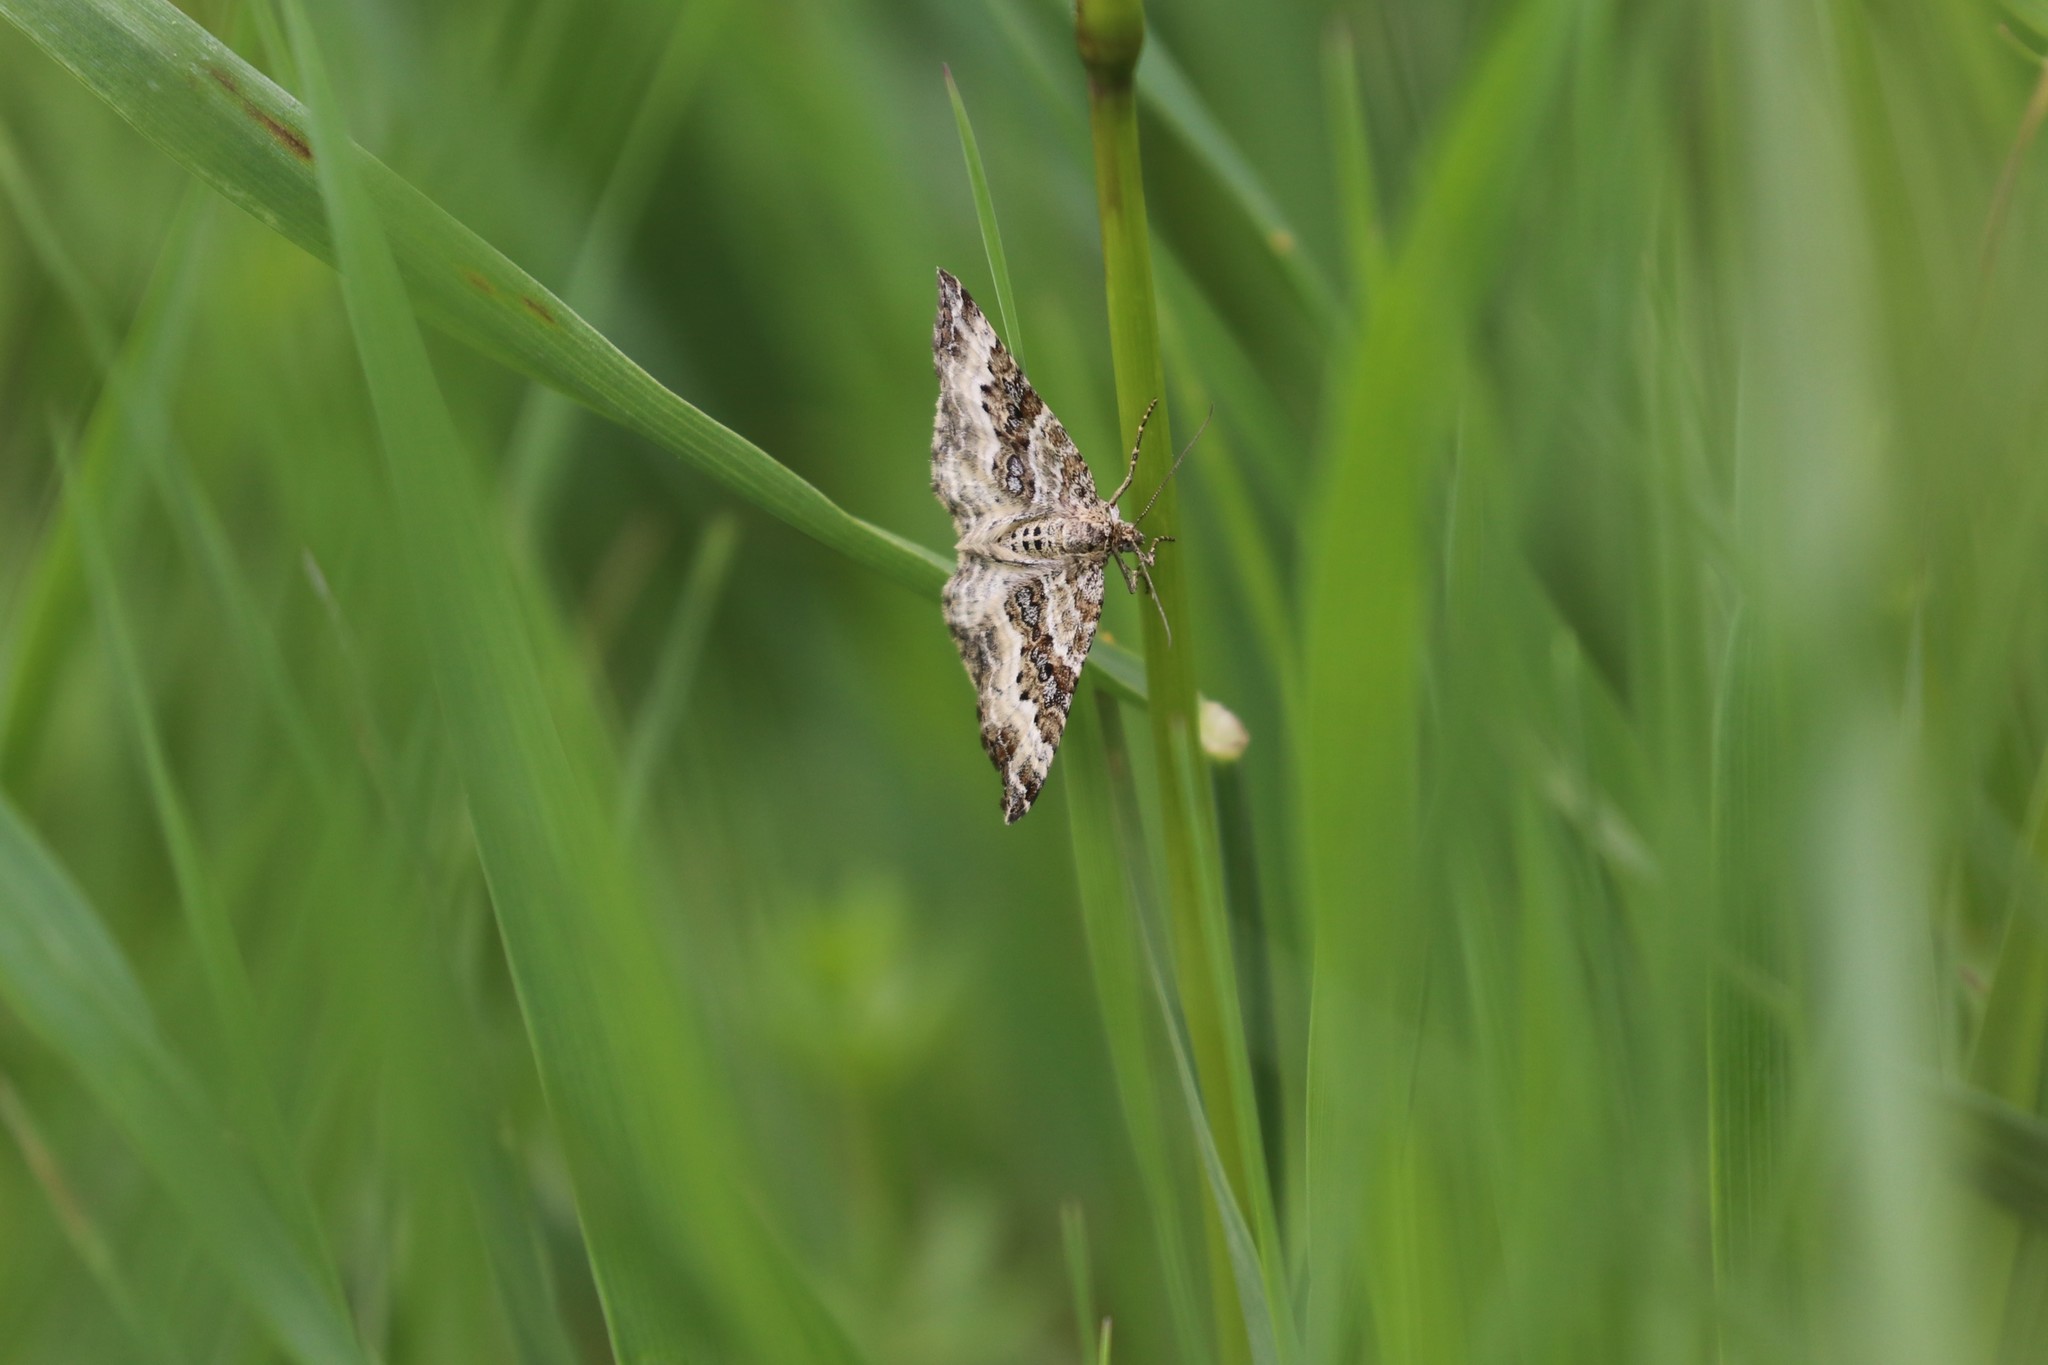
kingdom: Animalia
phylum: Arthropoda
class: Insecta
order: Lepidoptera
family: Geometridae
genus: Epirrhoe
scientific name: Epirrhoe alternata
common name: Common carpet
